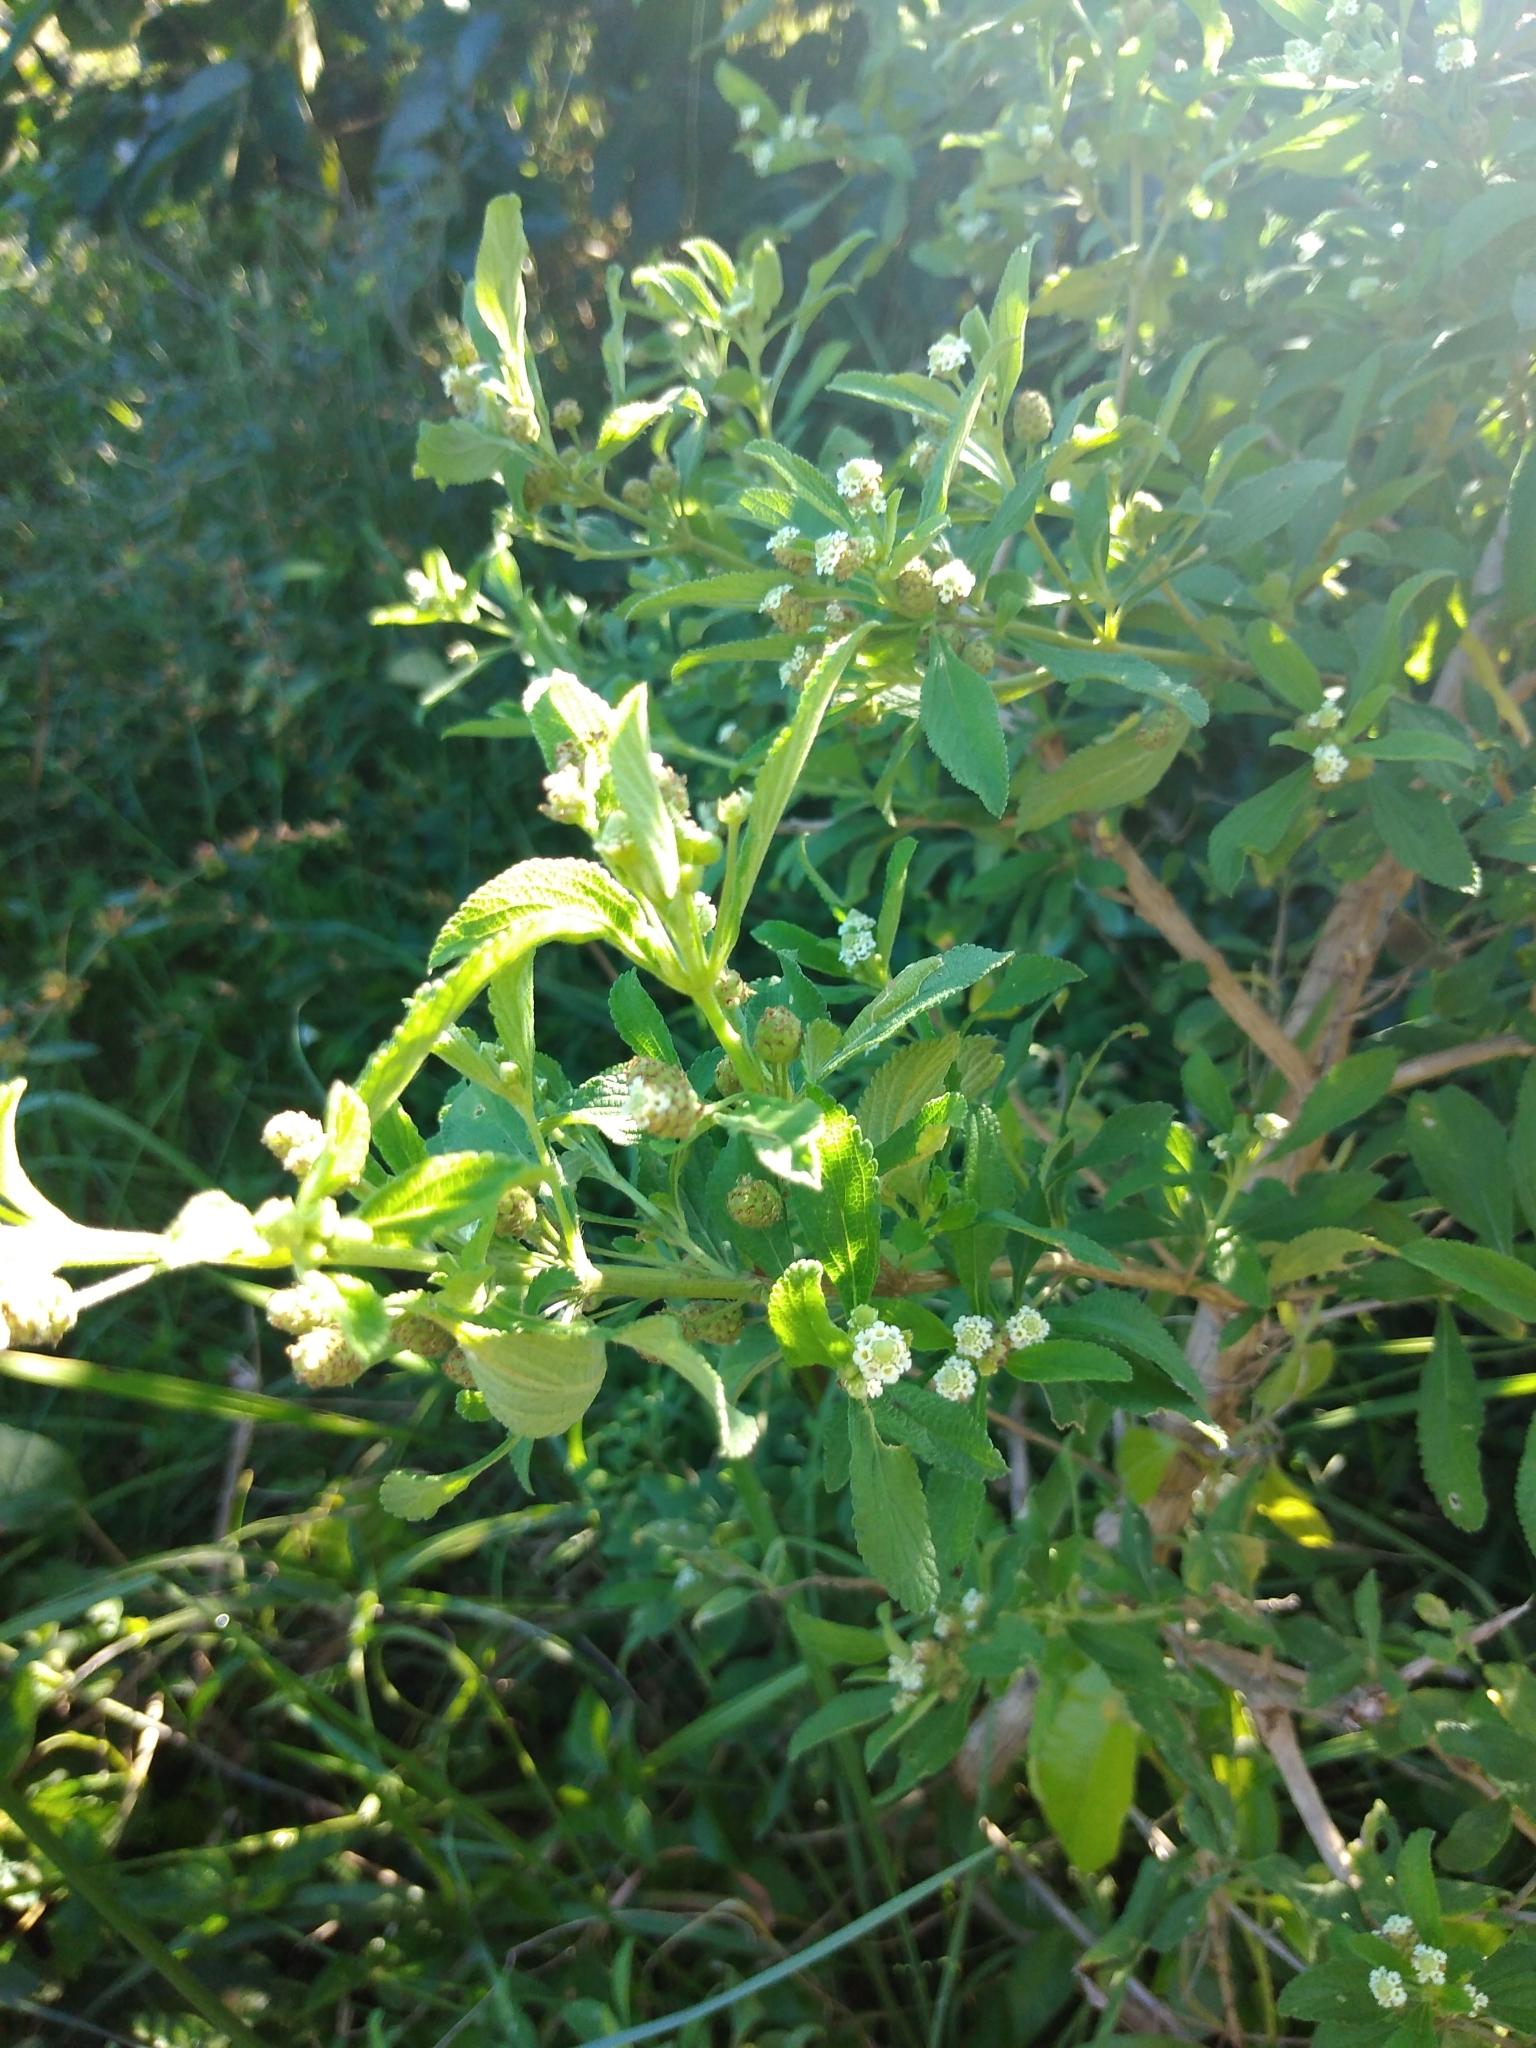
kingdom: Plantae
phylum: Tracheophyta
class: Magnoliopsida
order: Lamiales
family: Verbenaceae
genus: Lippia
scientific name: Lippia javanica
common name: Lemonbush
